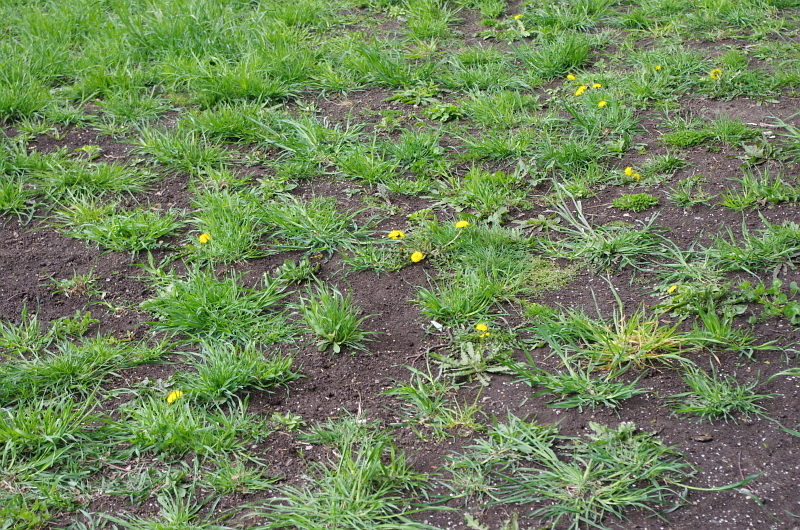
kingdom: Plantae
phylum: Tracheophyta
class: Magnoliopsida
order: Asterales
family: Asteraceae
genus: Taraxacum
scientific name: Taraxacum officinale
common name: Common dandelion
